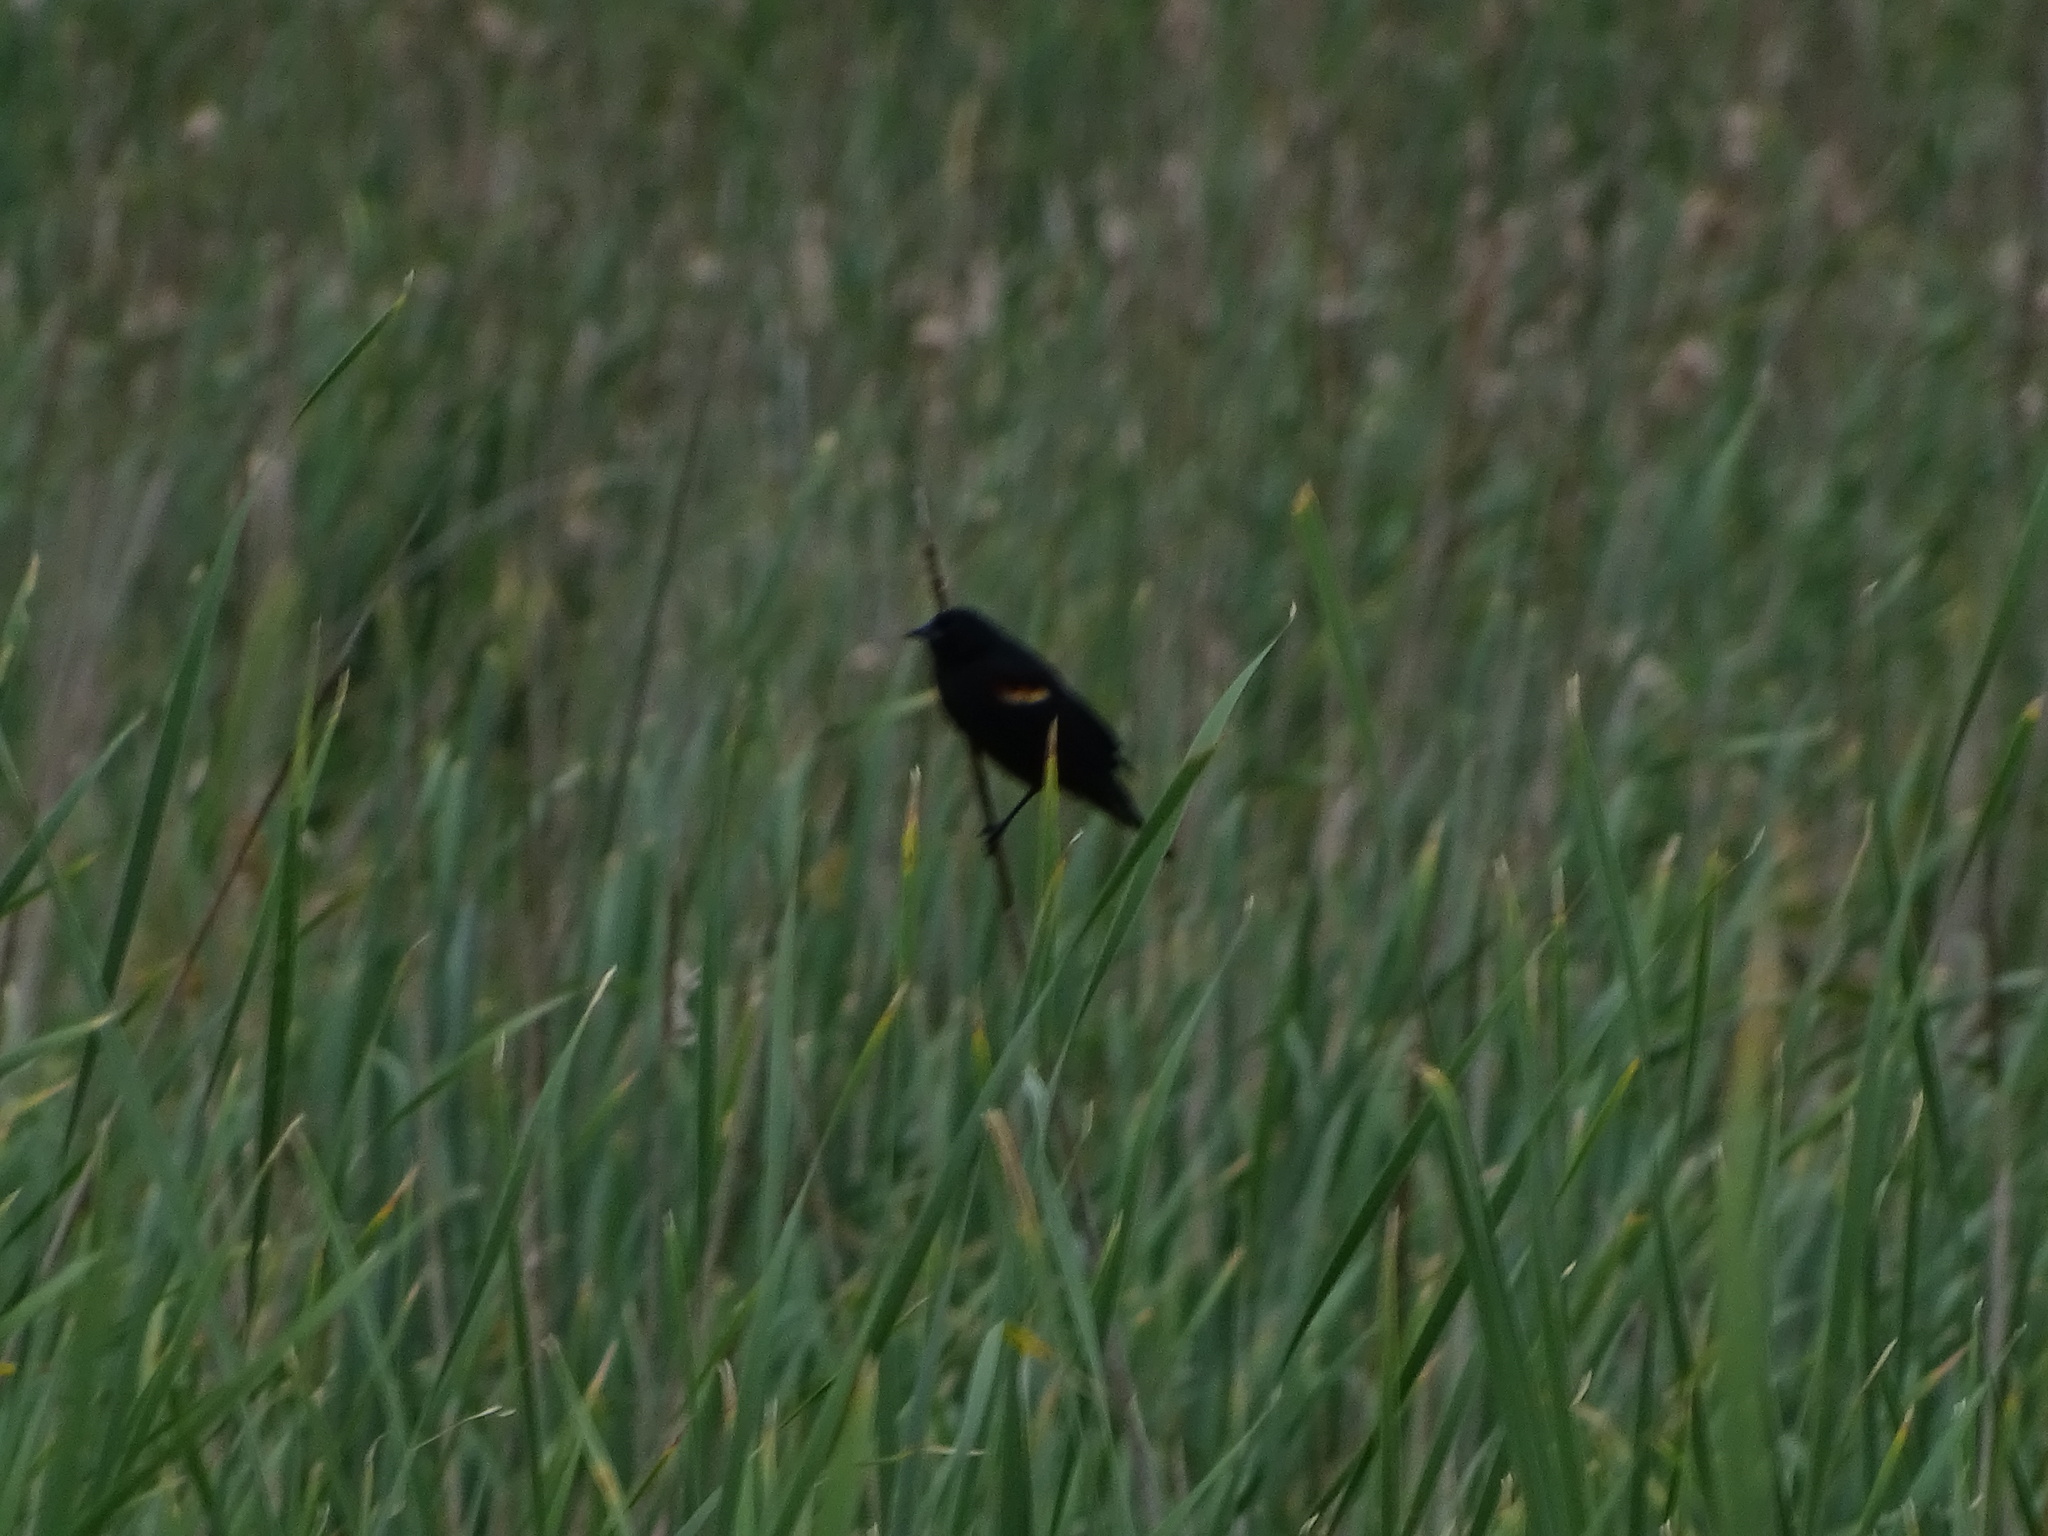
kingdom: Animalia
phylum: Chordata
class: Aves
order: Passeriformes
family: Icteridae
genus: Agelaius
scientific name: Agelaius phoeniceus
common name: Red-winged blackbird
